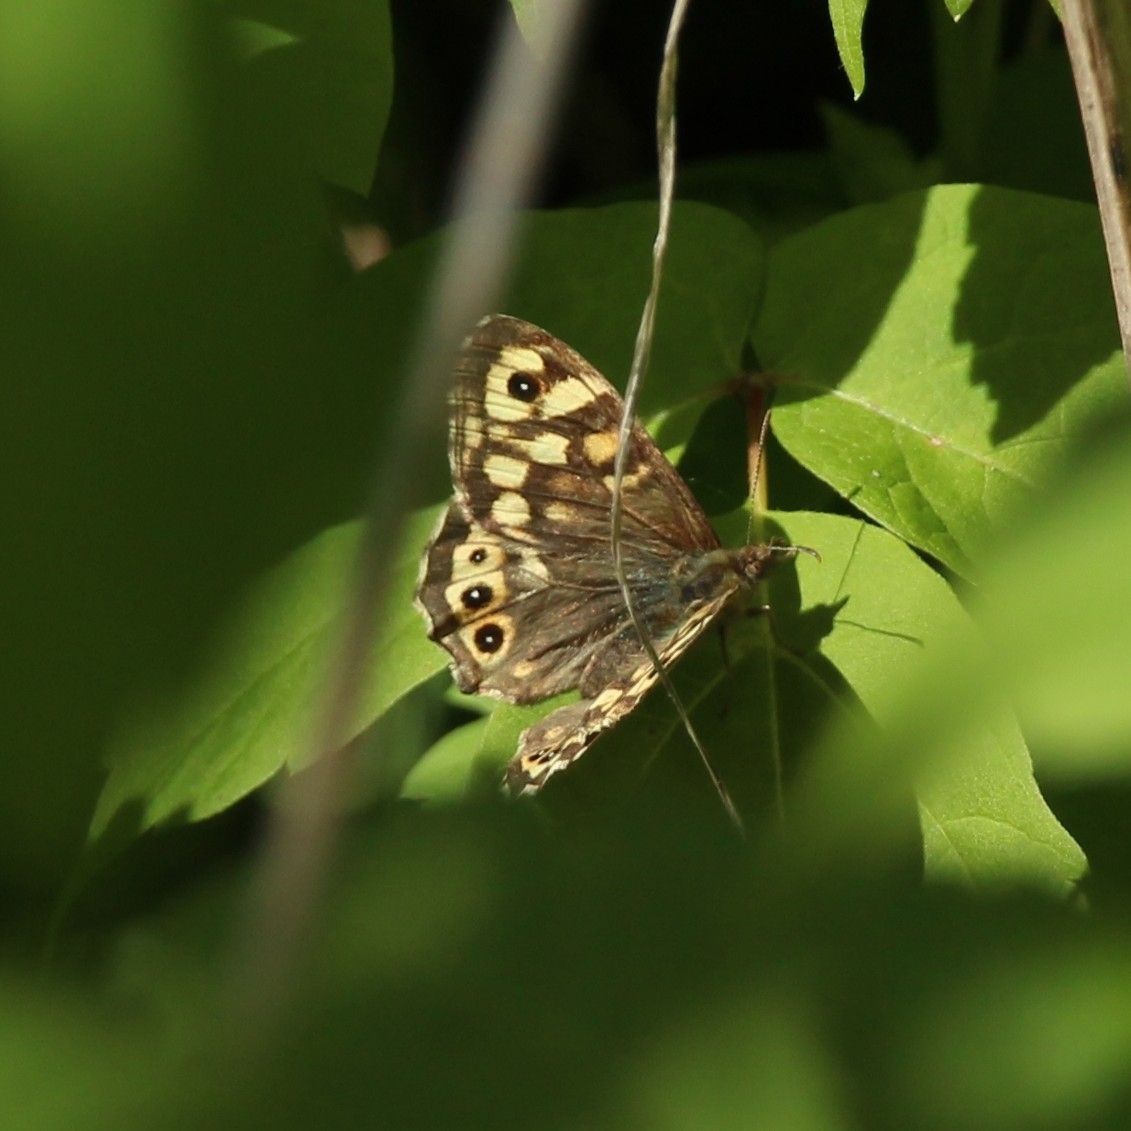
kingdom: Animalia
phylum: Arthropoda
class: Insecta
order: Lepidoptera
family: Nymphalidae
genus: Pararge
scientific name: Pararge aegeria
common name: Speckled wood
